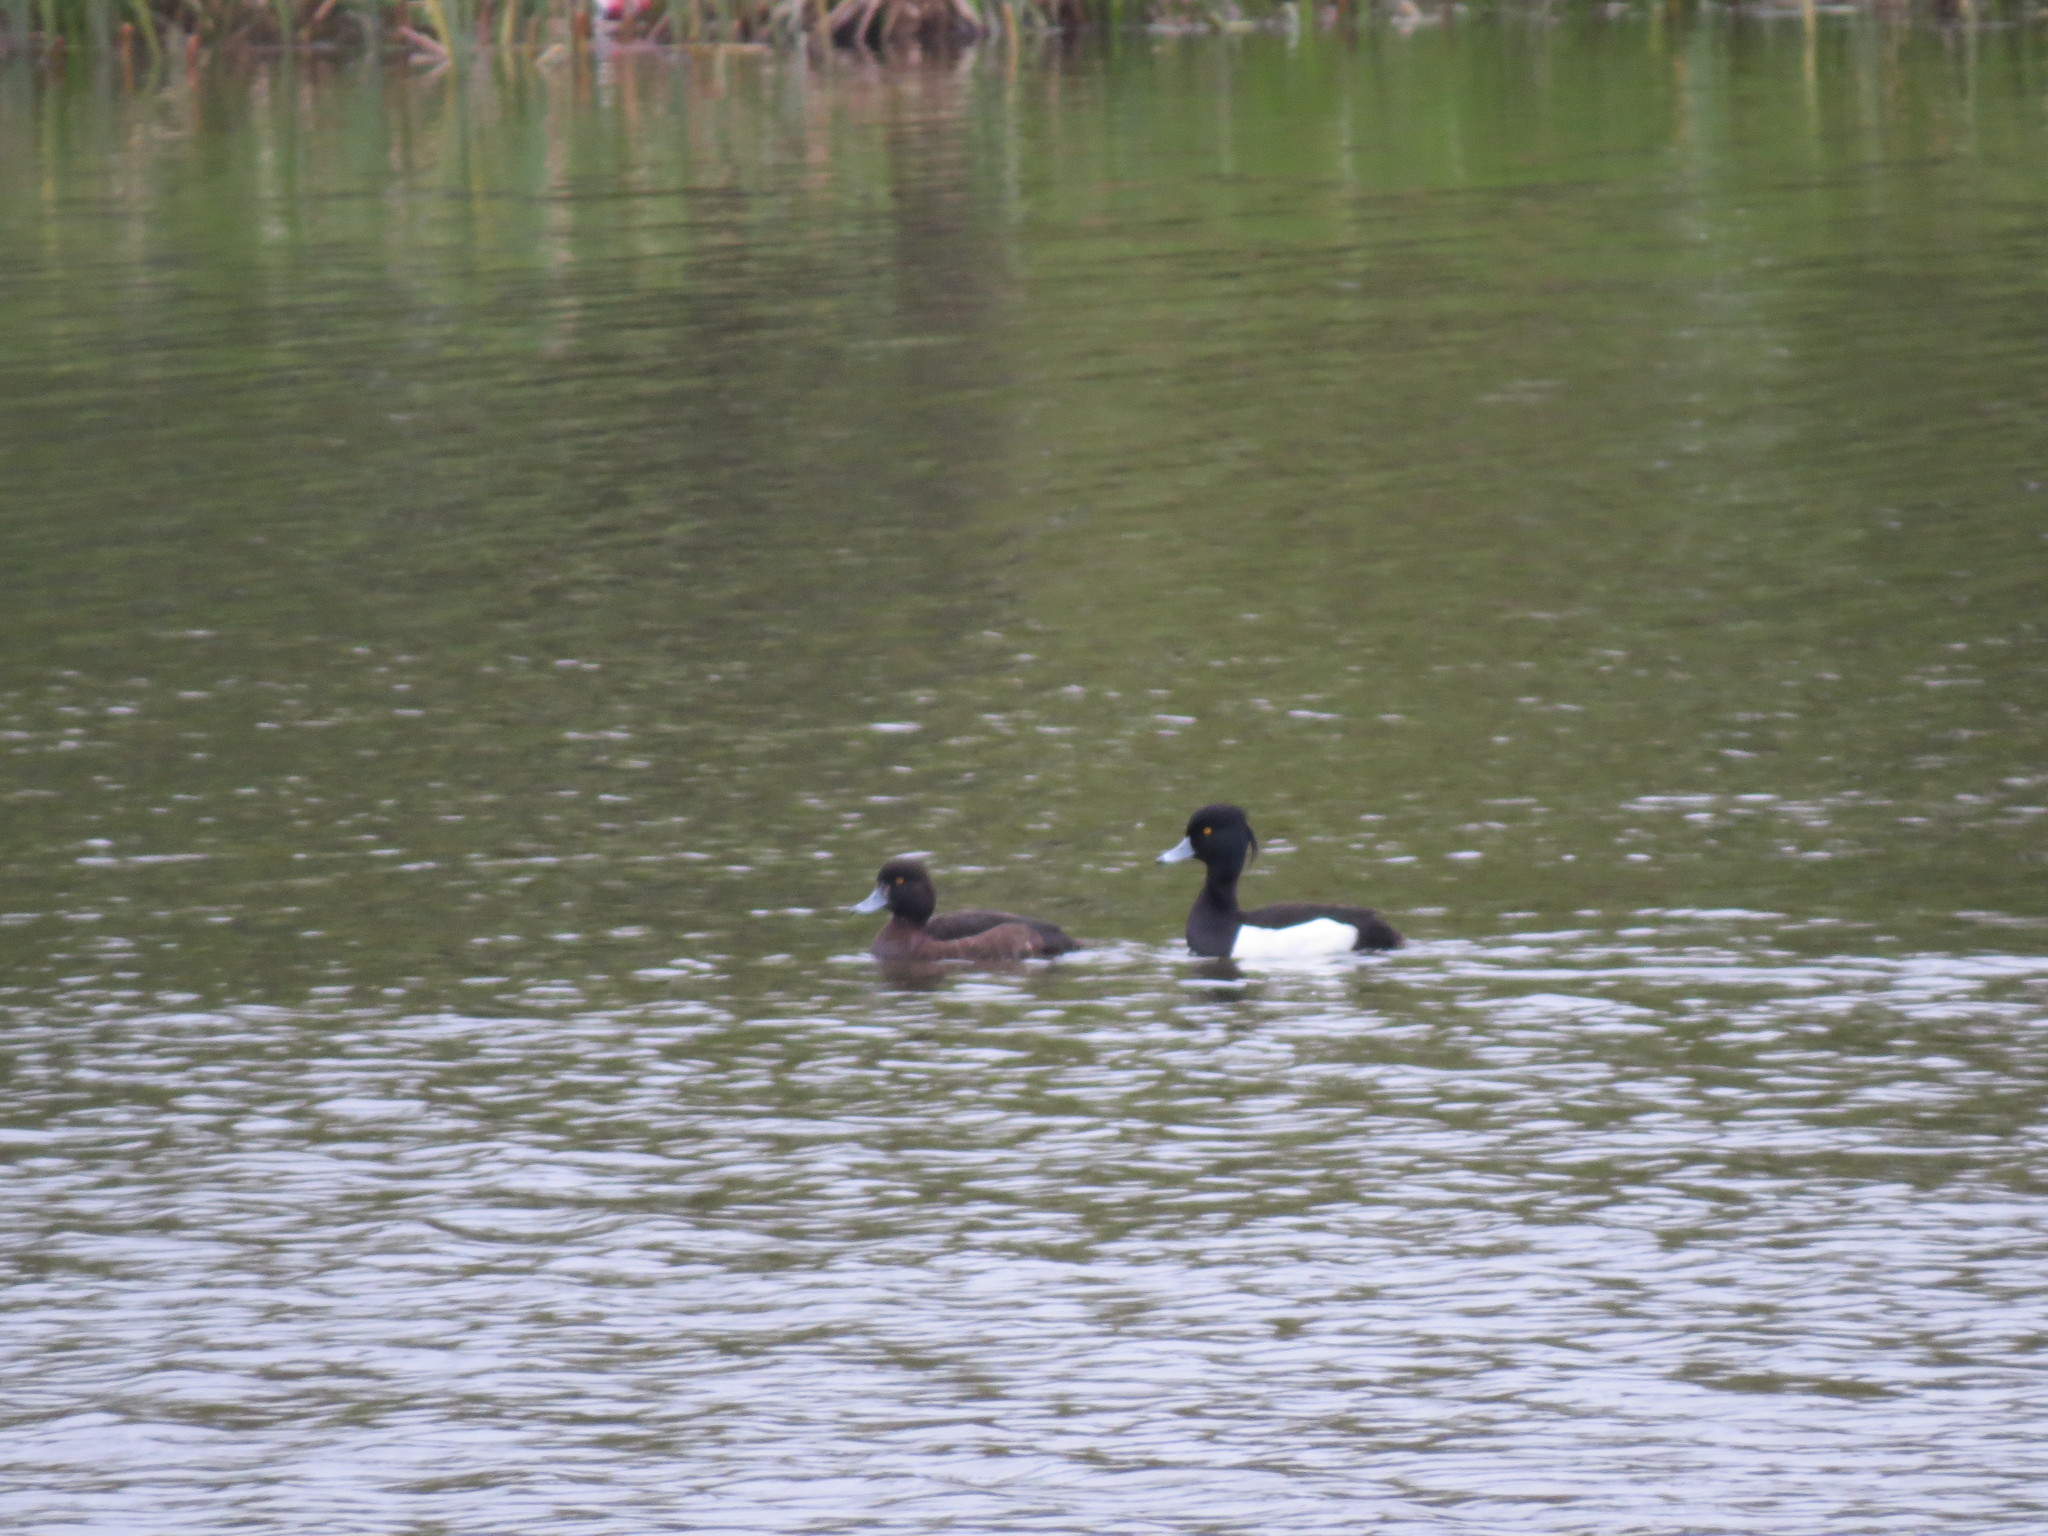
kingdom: Animalia
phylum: Chordata
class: Aves
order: Anseriformes
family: Anatidae
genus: Aythya
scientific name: Aythya fuligula
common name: Tufted duck
